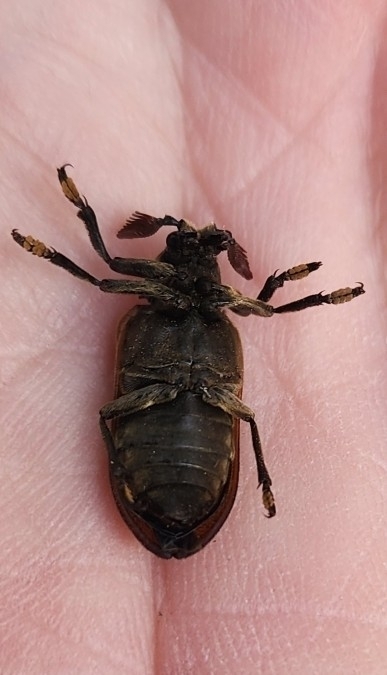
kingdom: Animalia
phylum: Arthropoda
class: Insecta
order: Coleoptera
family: Rhipiceridae
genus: Sandalus
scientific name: Sandalus niger
